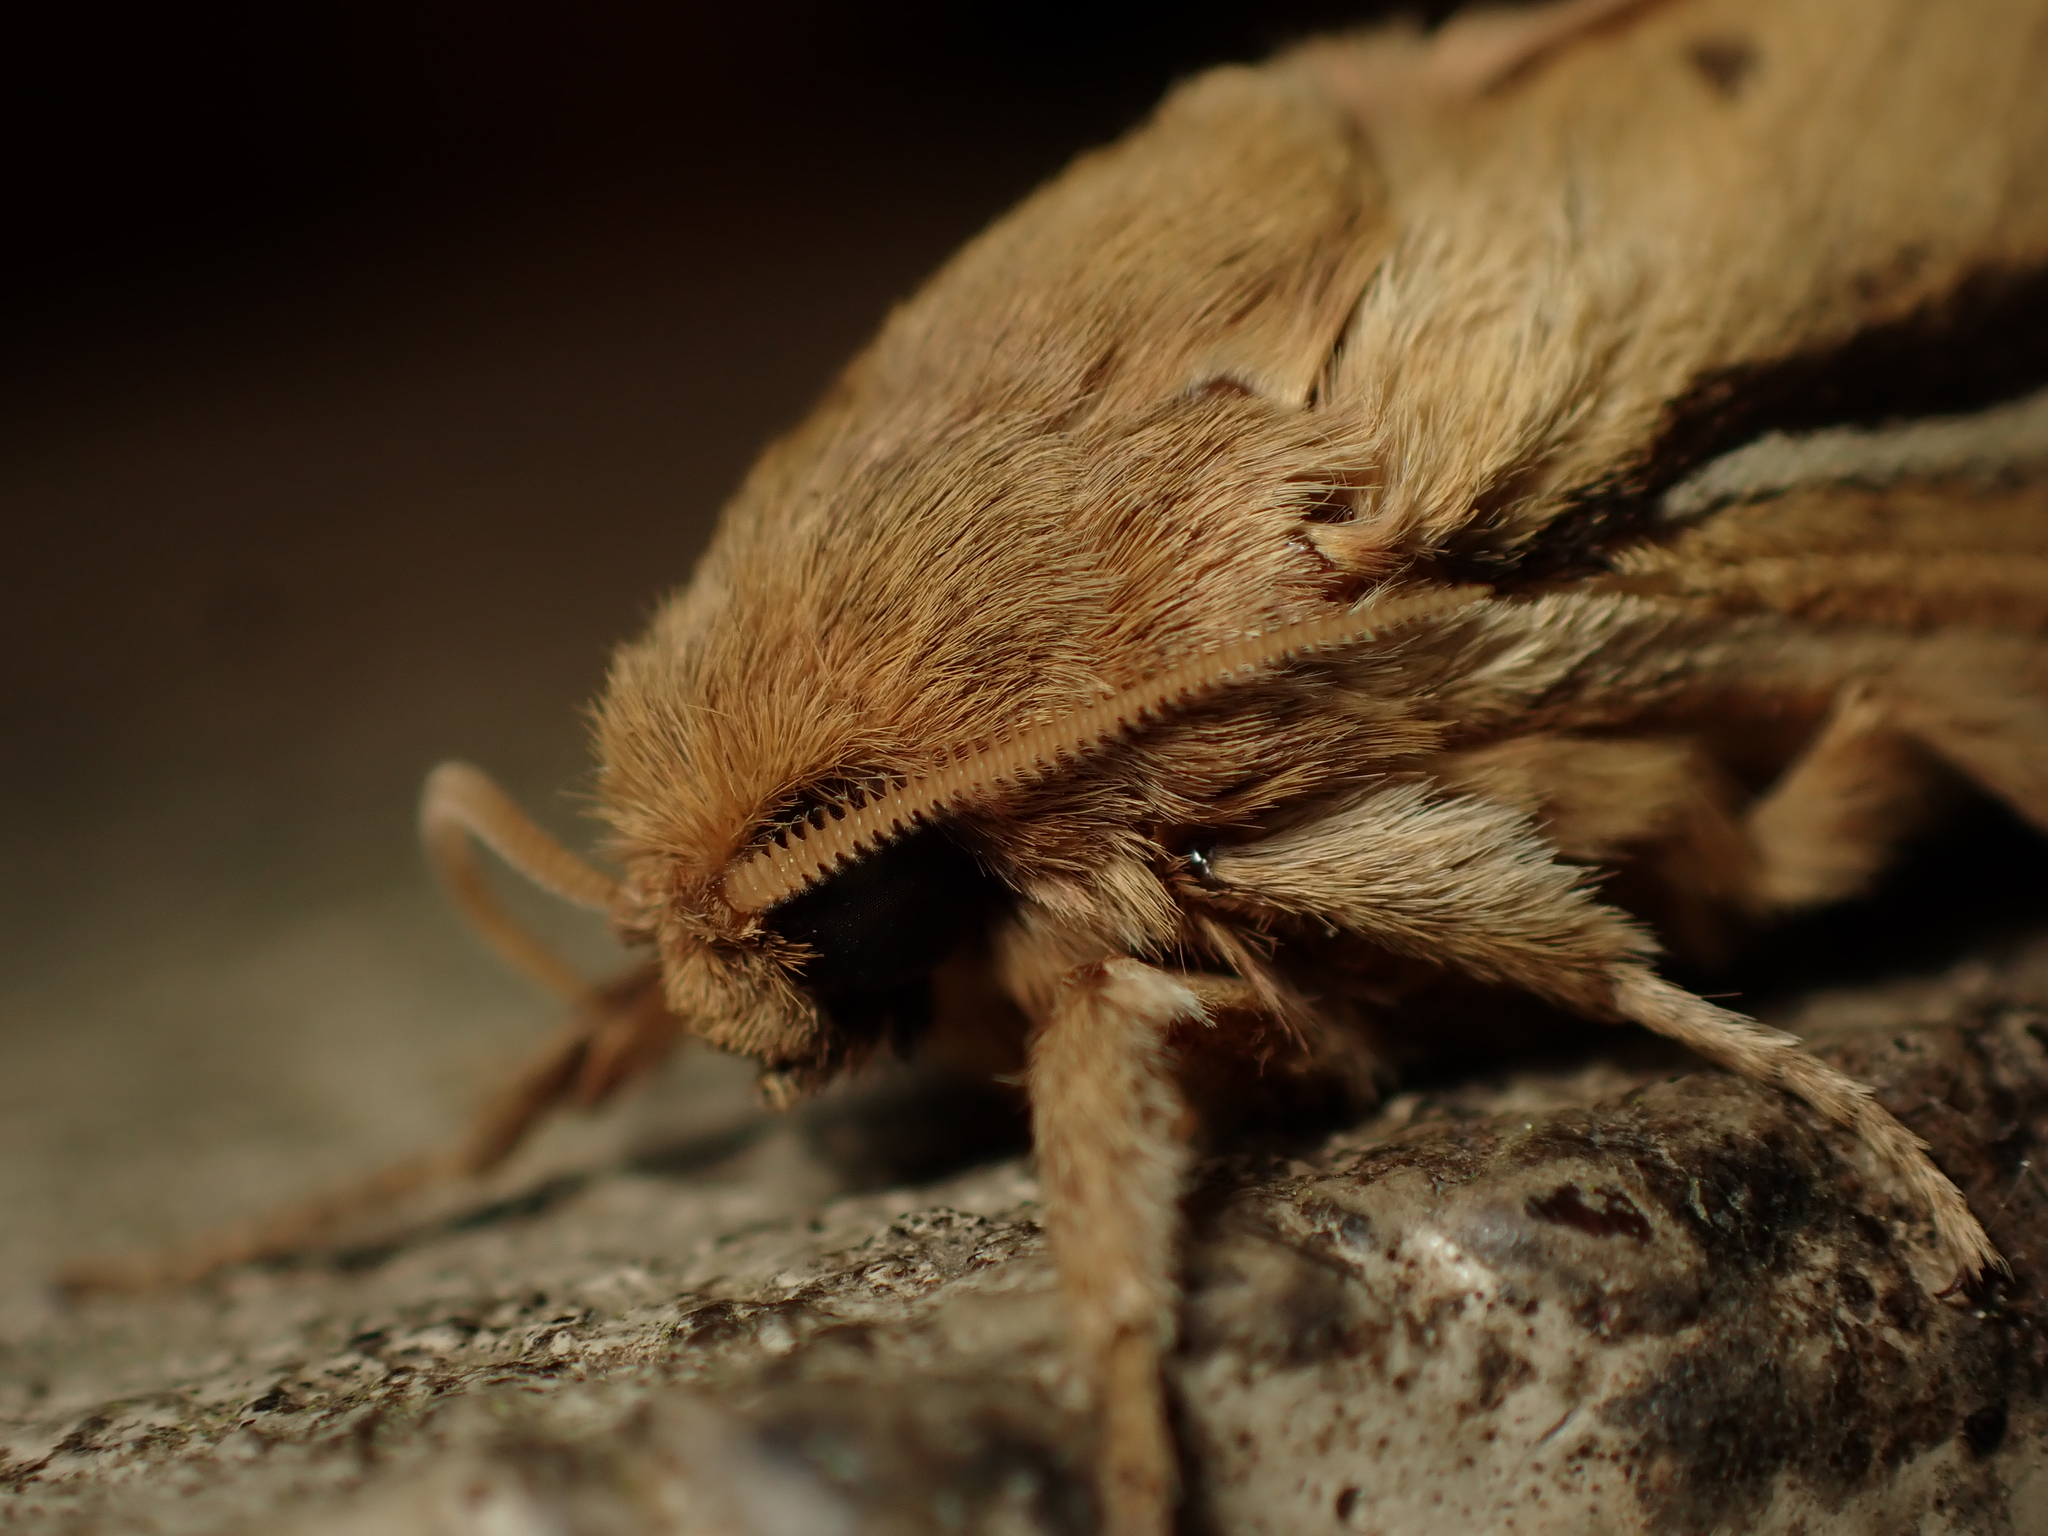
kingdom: Animalia
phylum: Arthropoda
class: Insecta
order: Lepidoptera
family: Hepialidae
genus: Wiseana
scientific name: Wiseana umbraculatus
